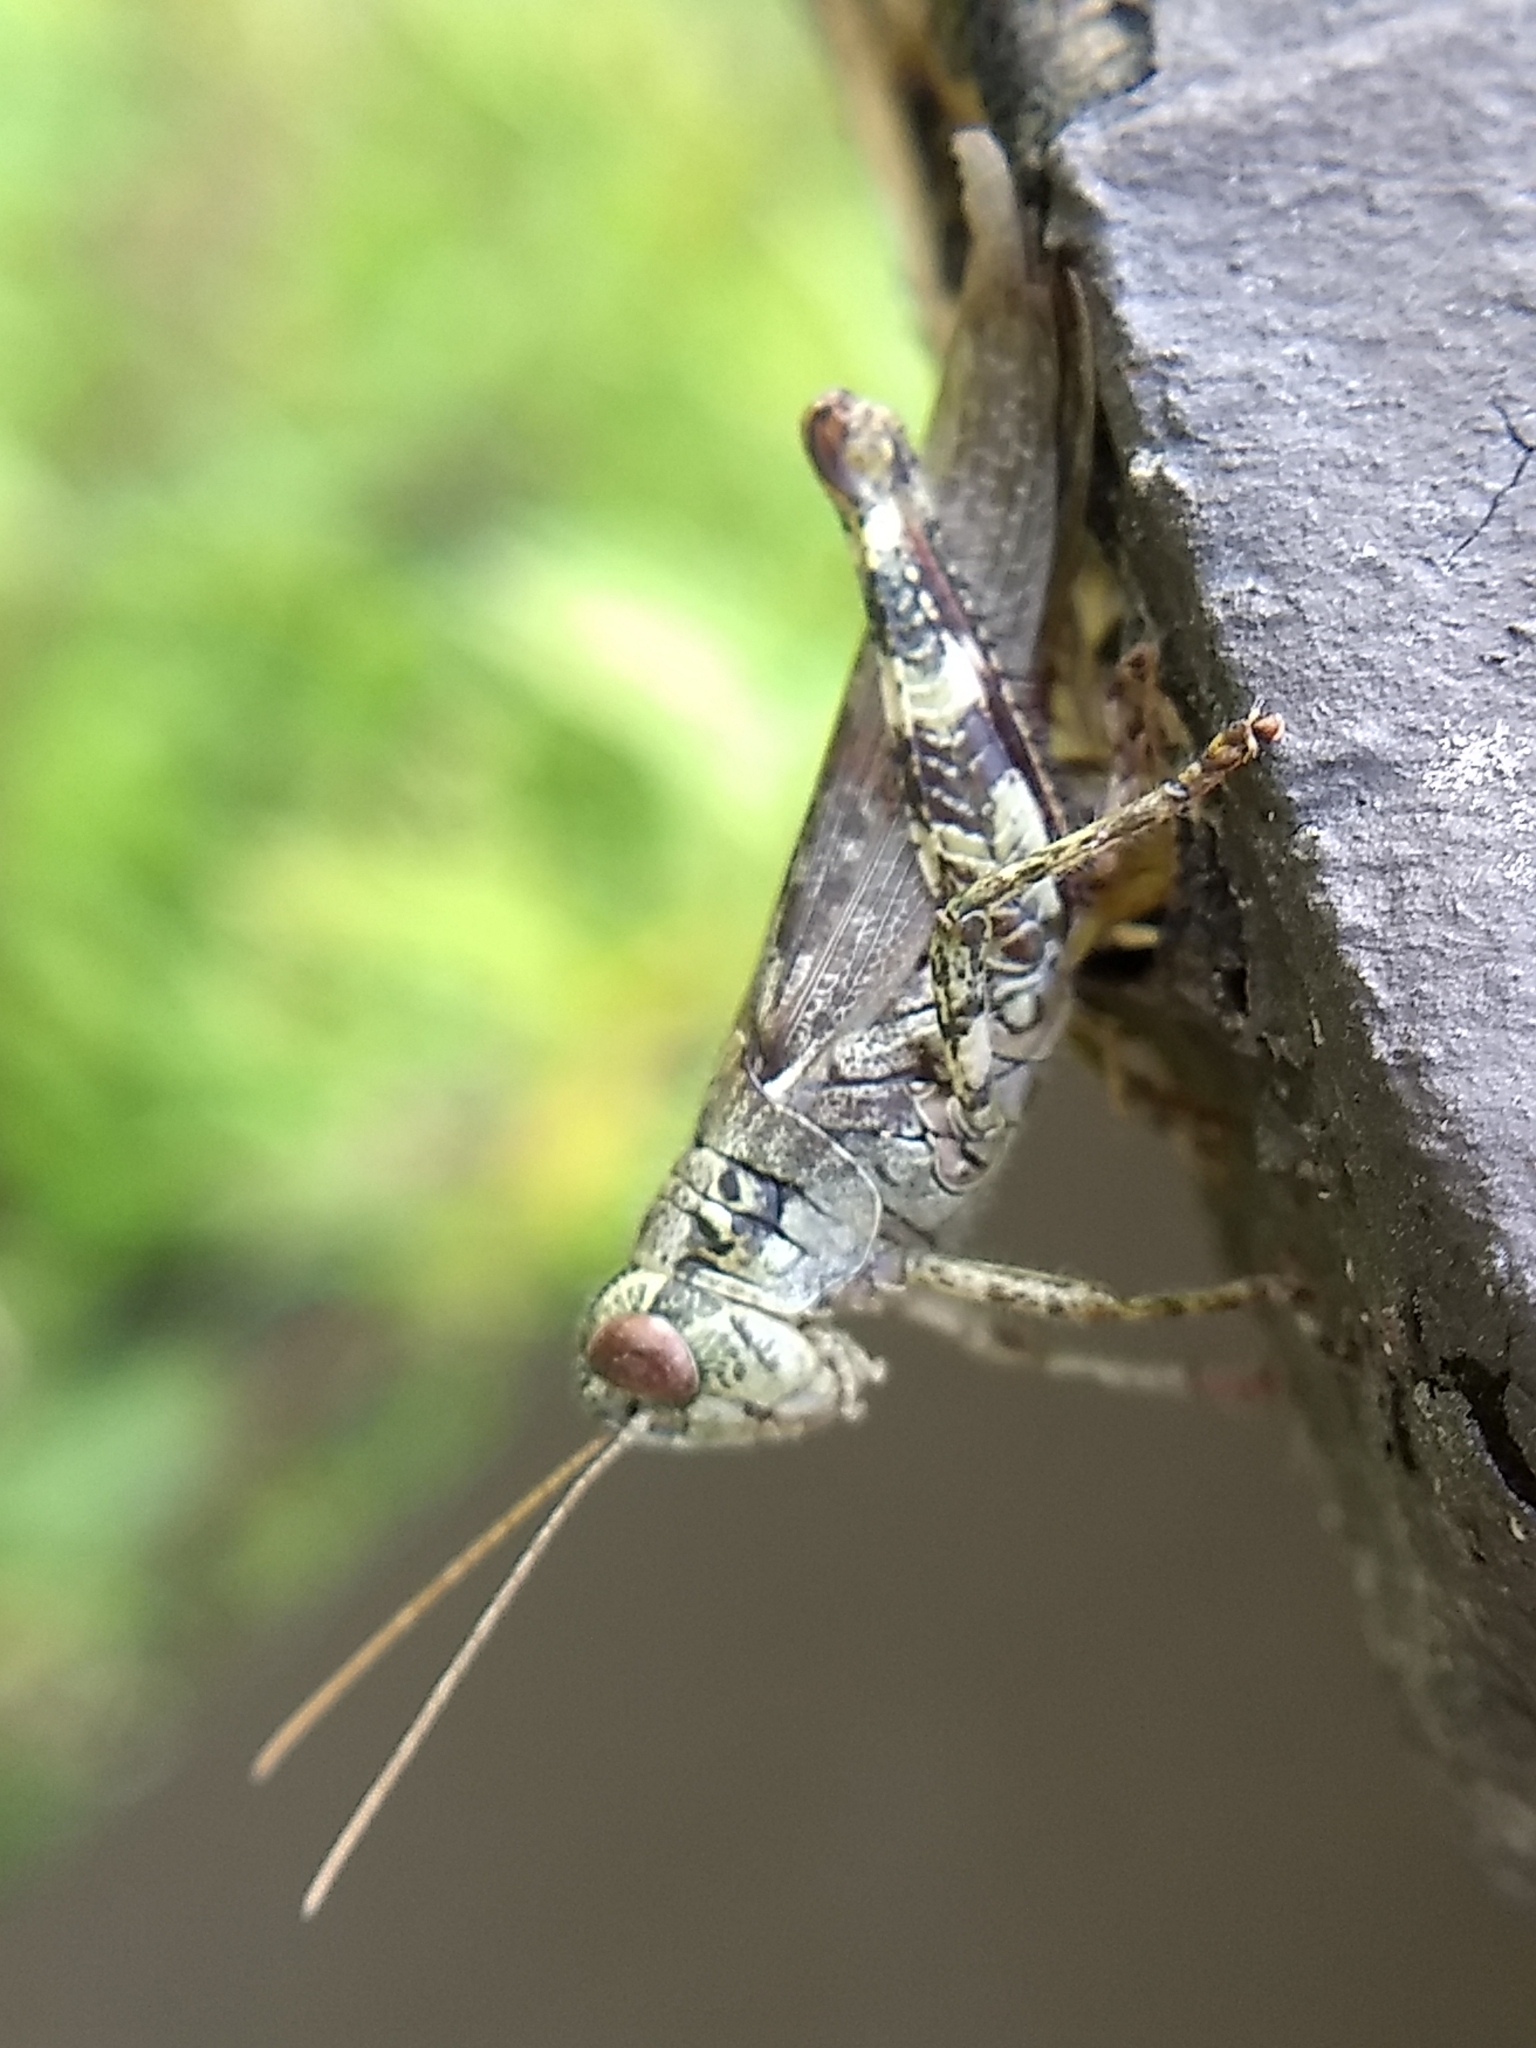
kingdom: Animalia
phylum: Arthropoda
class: Insecta
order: Orthoptera
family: Acrididae
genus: Melanoplus
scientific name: Melanoplus punctulatus
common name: Pine-tree spur-throat grasshopper
